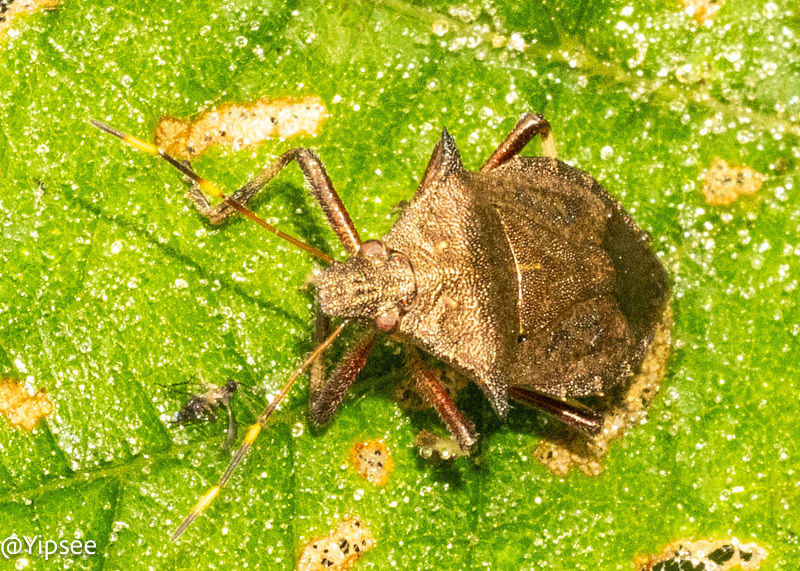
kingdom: Animalia
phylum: Arthropoda
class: Insecta
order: Hemiptera
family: Pentatomidae
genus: Picromerus
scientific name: Picromerus griseus
